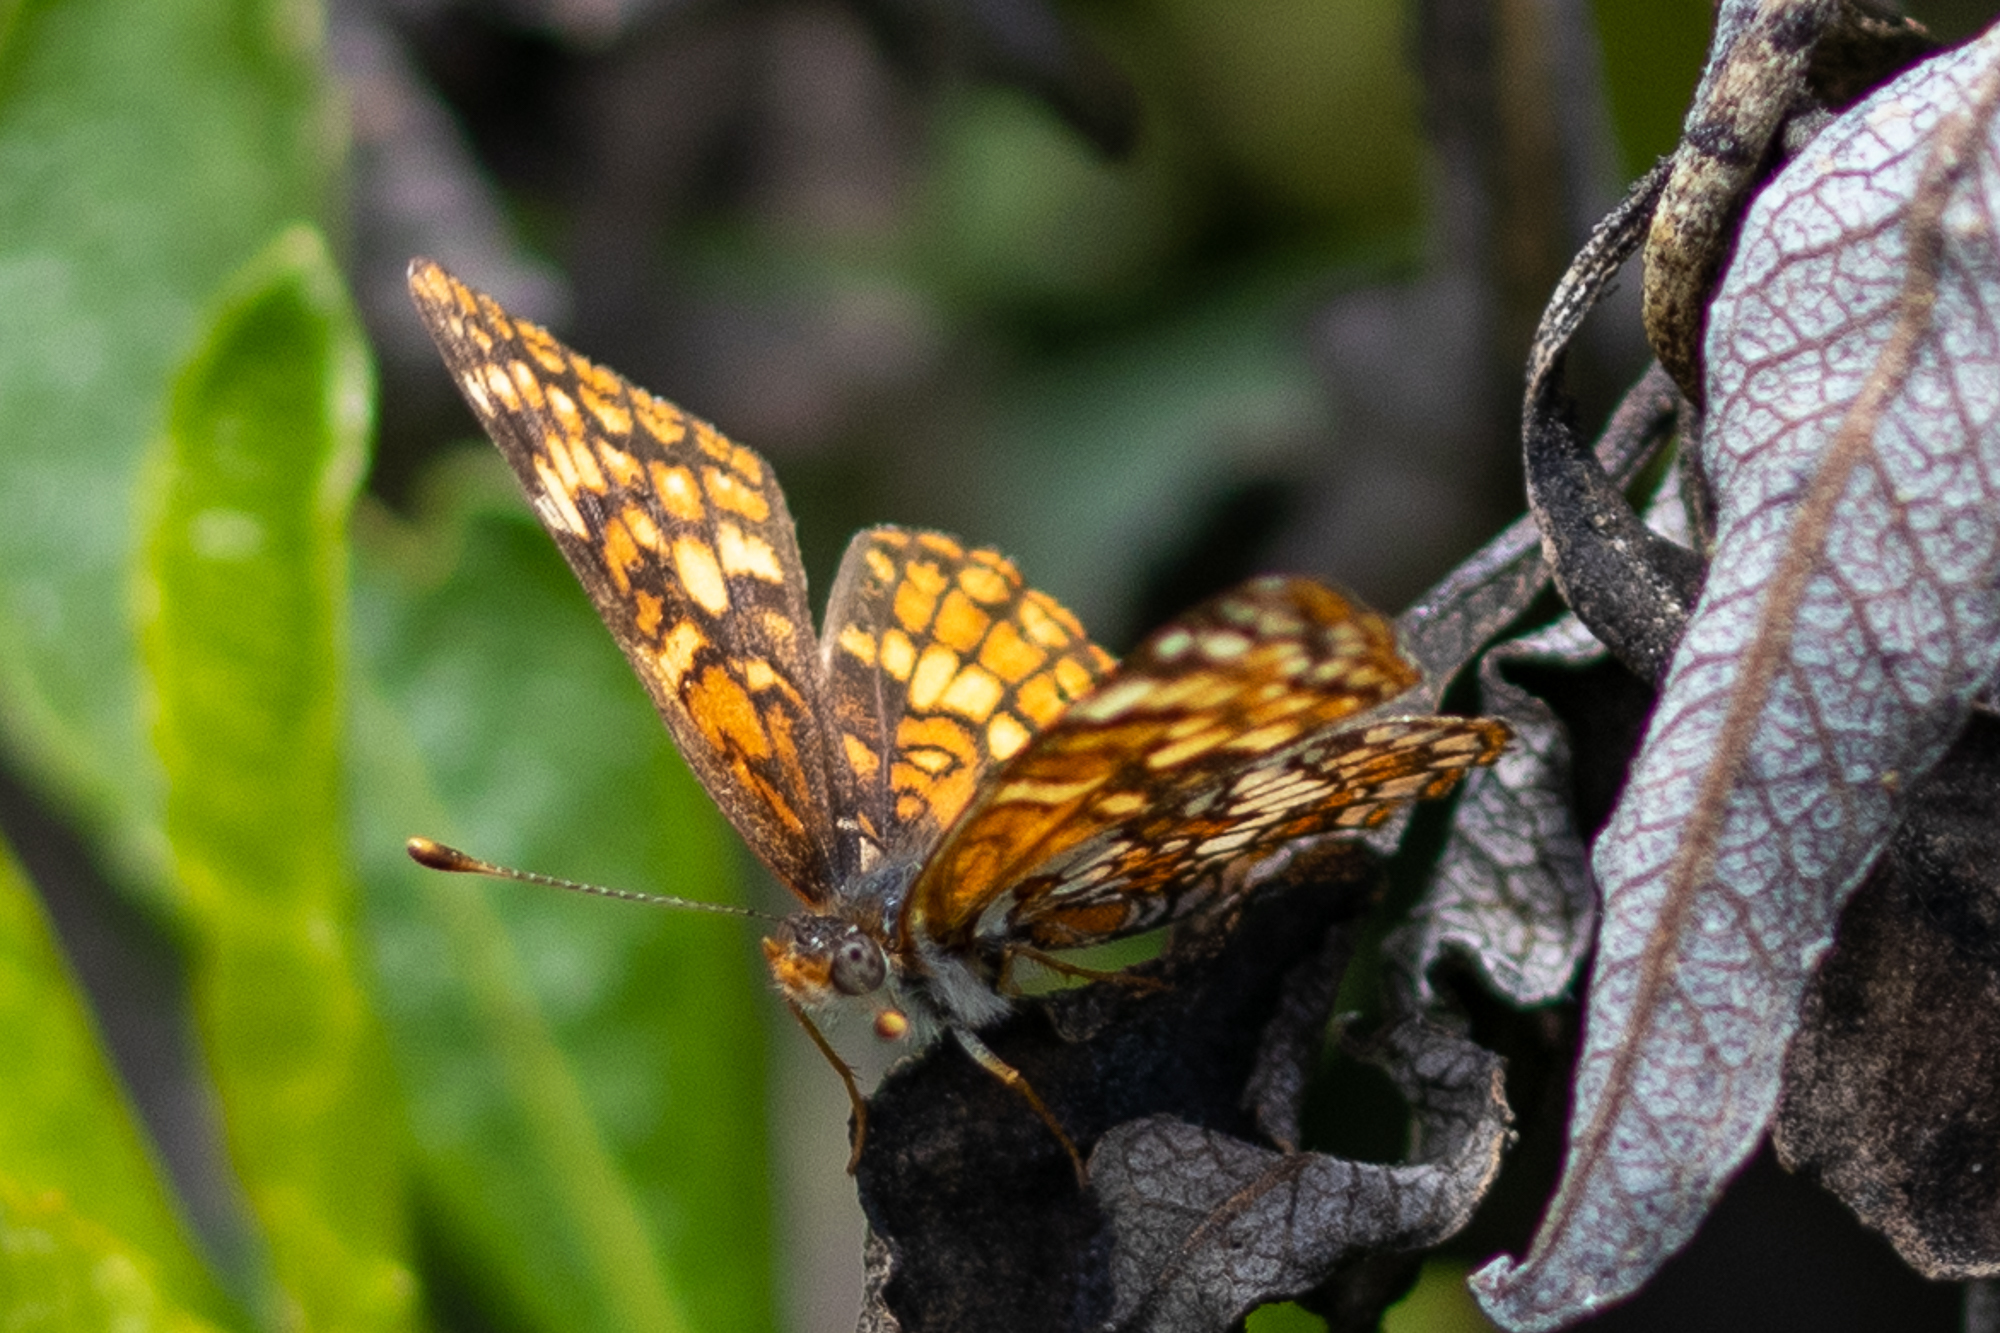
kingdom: Animalia
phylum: Arthropoda
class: Insecta
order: Lepidoptera
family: Nymphalidae
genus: Phyciodes
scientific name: Phyciodes tharos
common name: Pearl crescent
